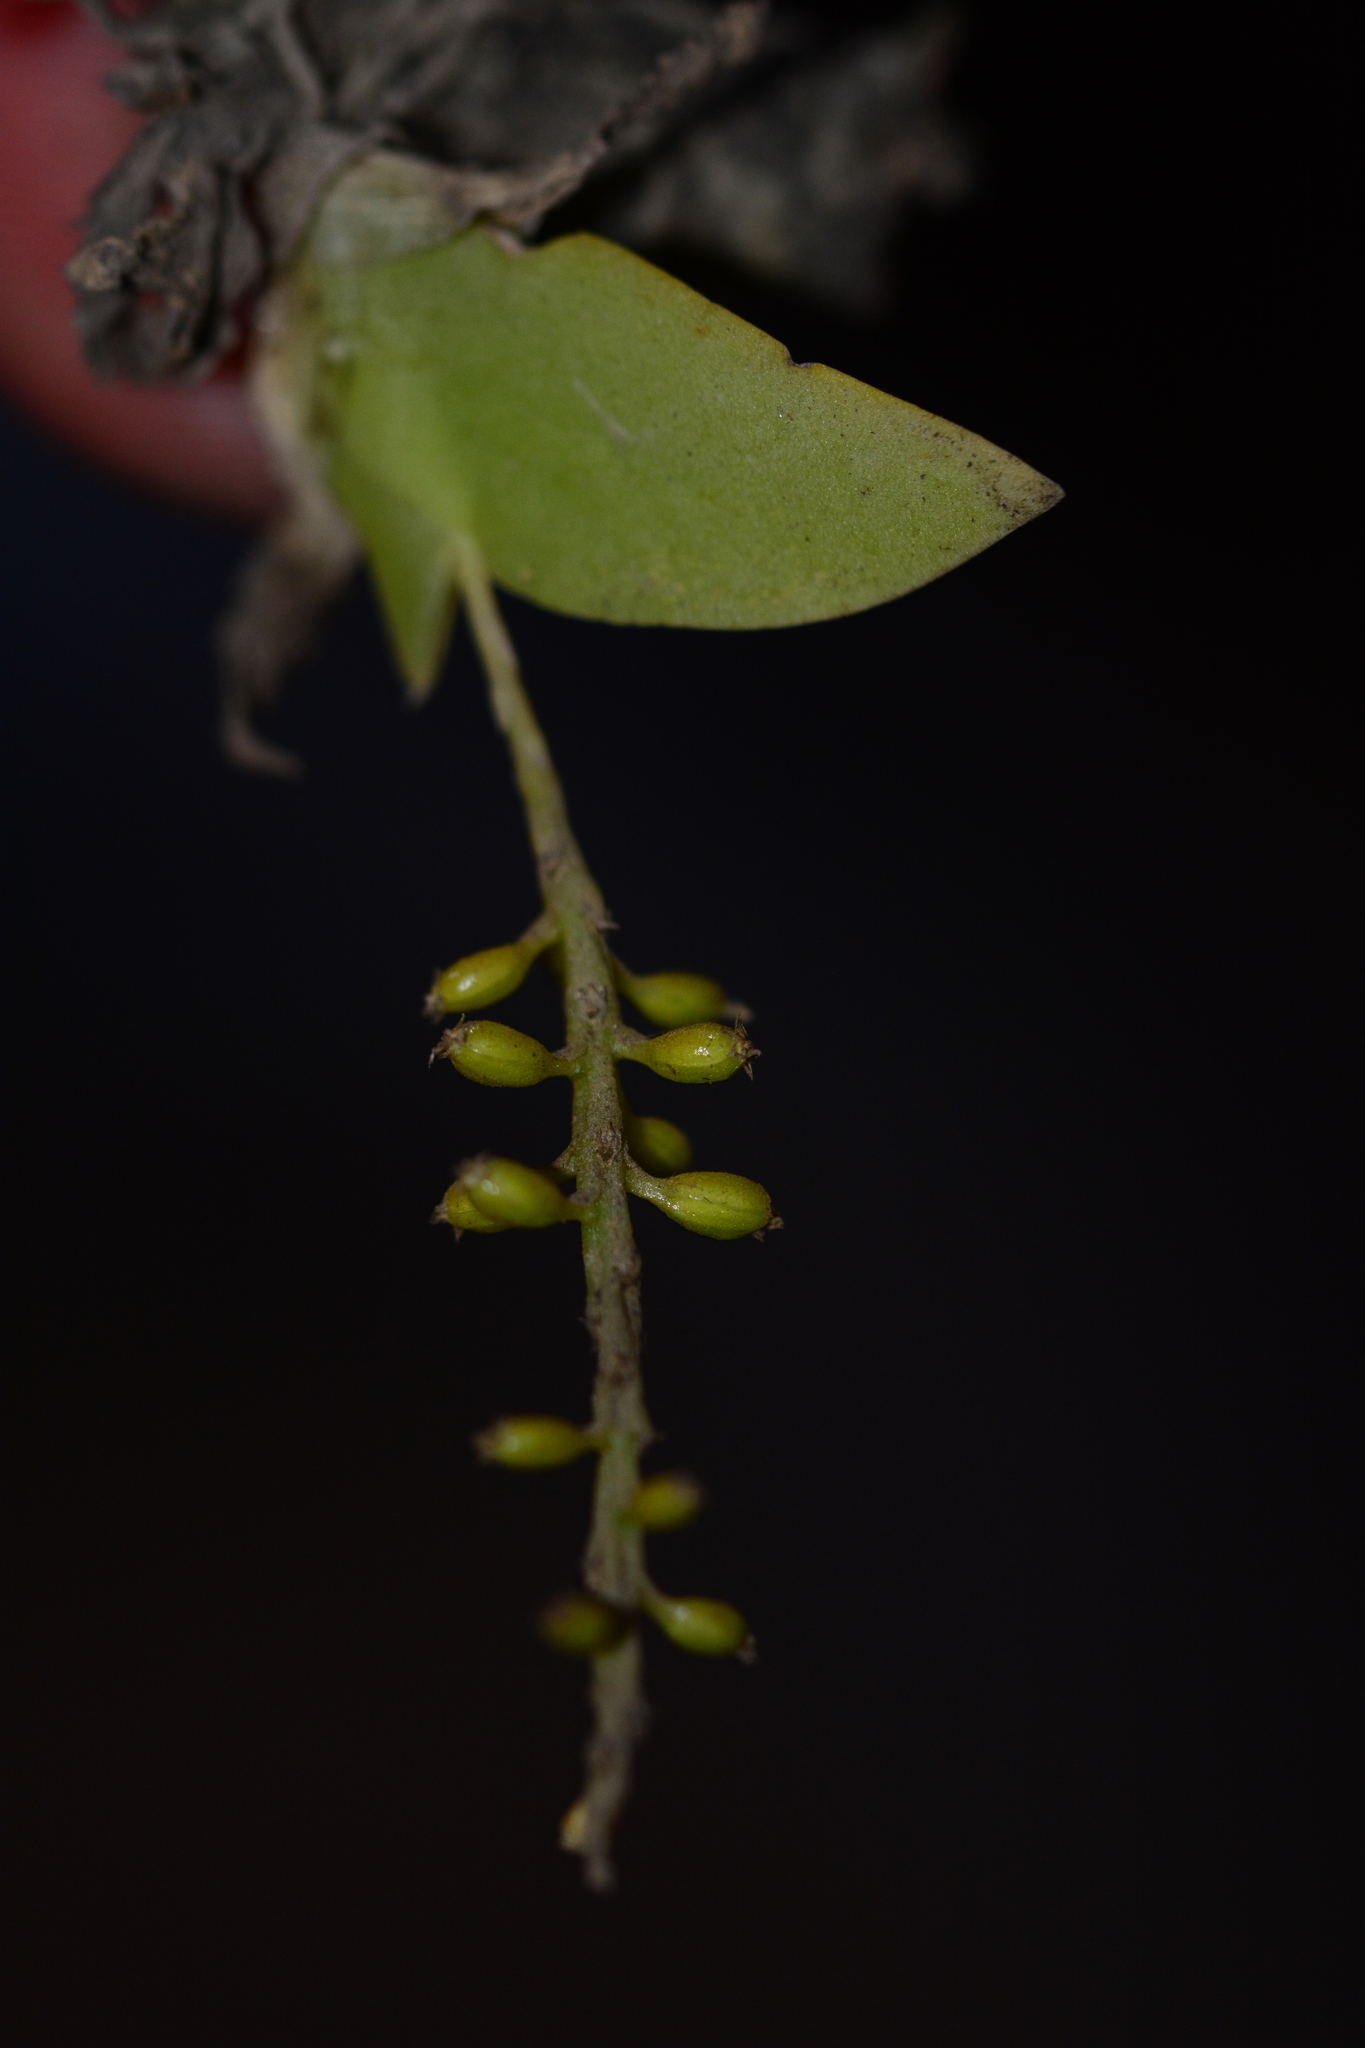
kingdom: Plantae
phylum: Tracheophyta
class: Liliopsida
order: Asparagales
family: Orchidaceae
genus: Oberonia
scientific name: Oberonia falconeri
